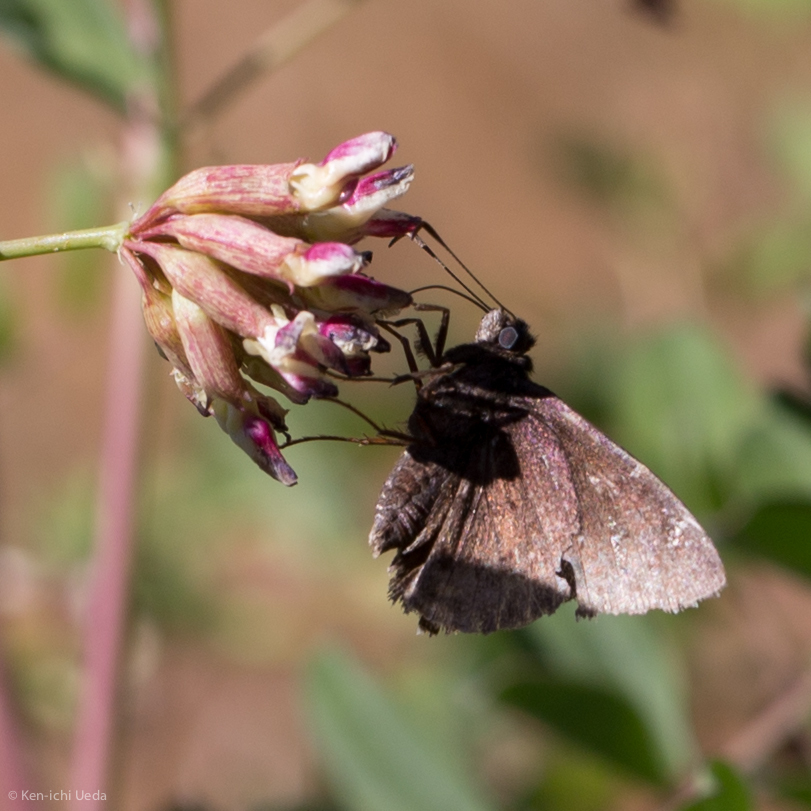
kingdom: Animalia
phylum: Arthropoda
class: Insecta
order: Lepidoptera
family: Hesperiidae
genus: Thorybes
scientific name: Thorybes pylades
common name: Northern cloudywing
